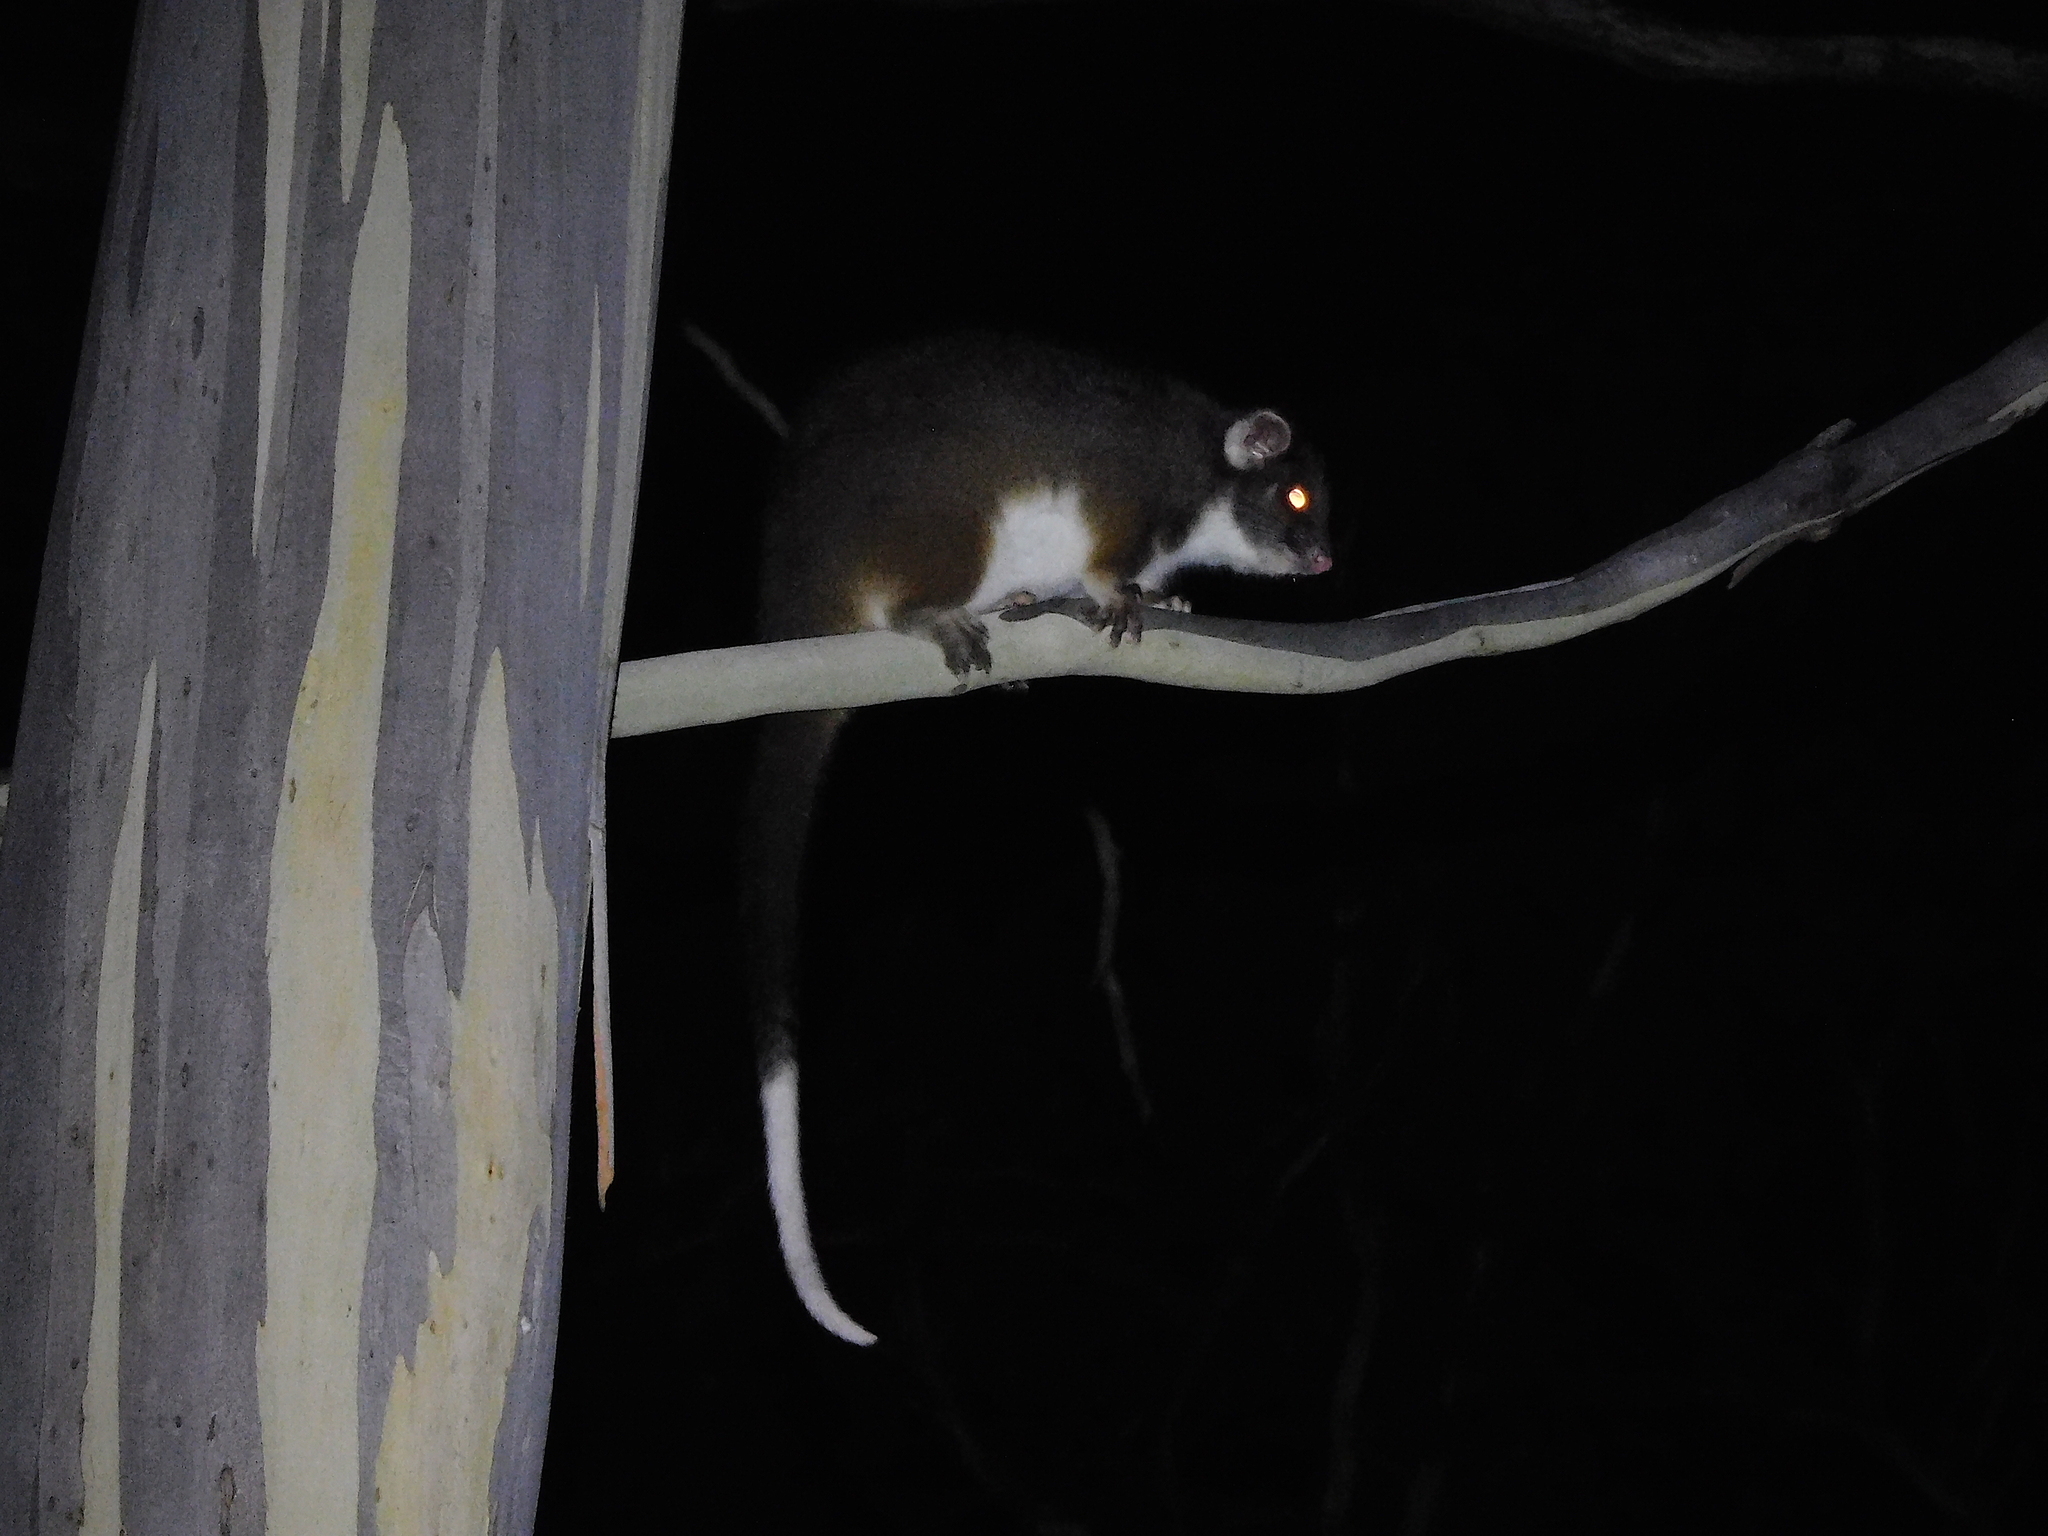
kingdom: Animalia
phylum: Chordata
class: Mammalia
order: Diprotodontia
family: Pseudocheiridae
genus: Pseudocheirus
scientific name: Pseudocheirus peregrinus
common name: Common ringtail possum
